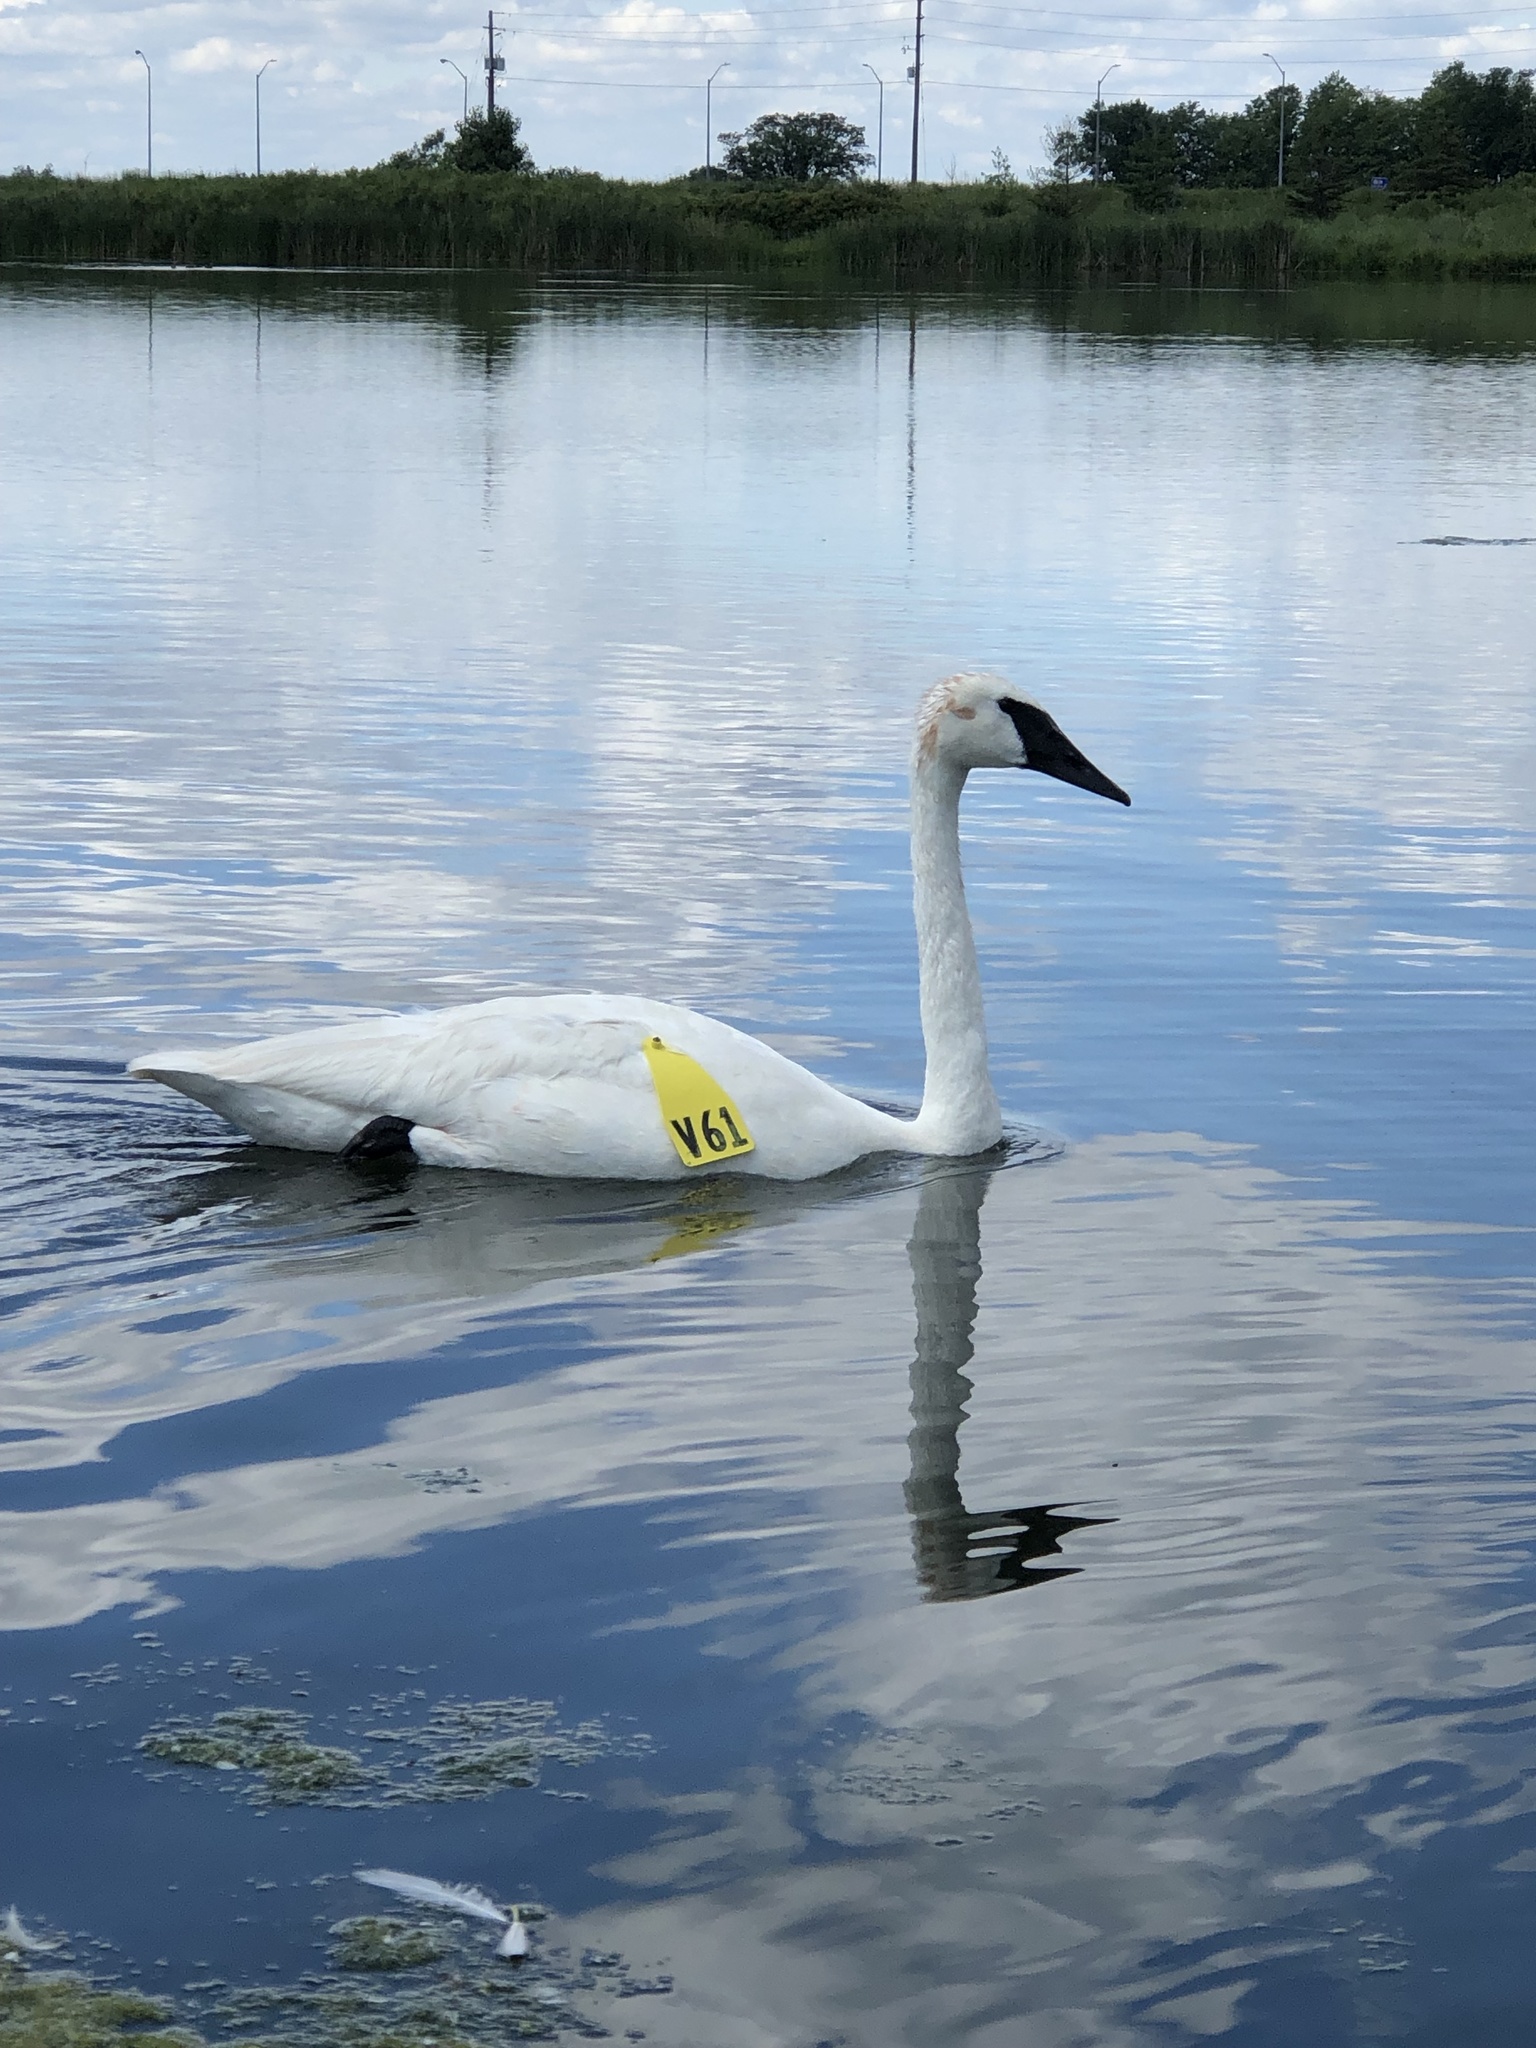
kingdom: Animalia
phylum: Chordata
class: Aves
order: Anseriformes
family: Anatidae
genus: Cygnus
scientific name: Cygnus buccinator
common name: Trumpeter swan
